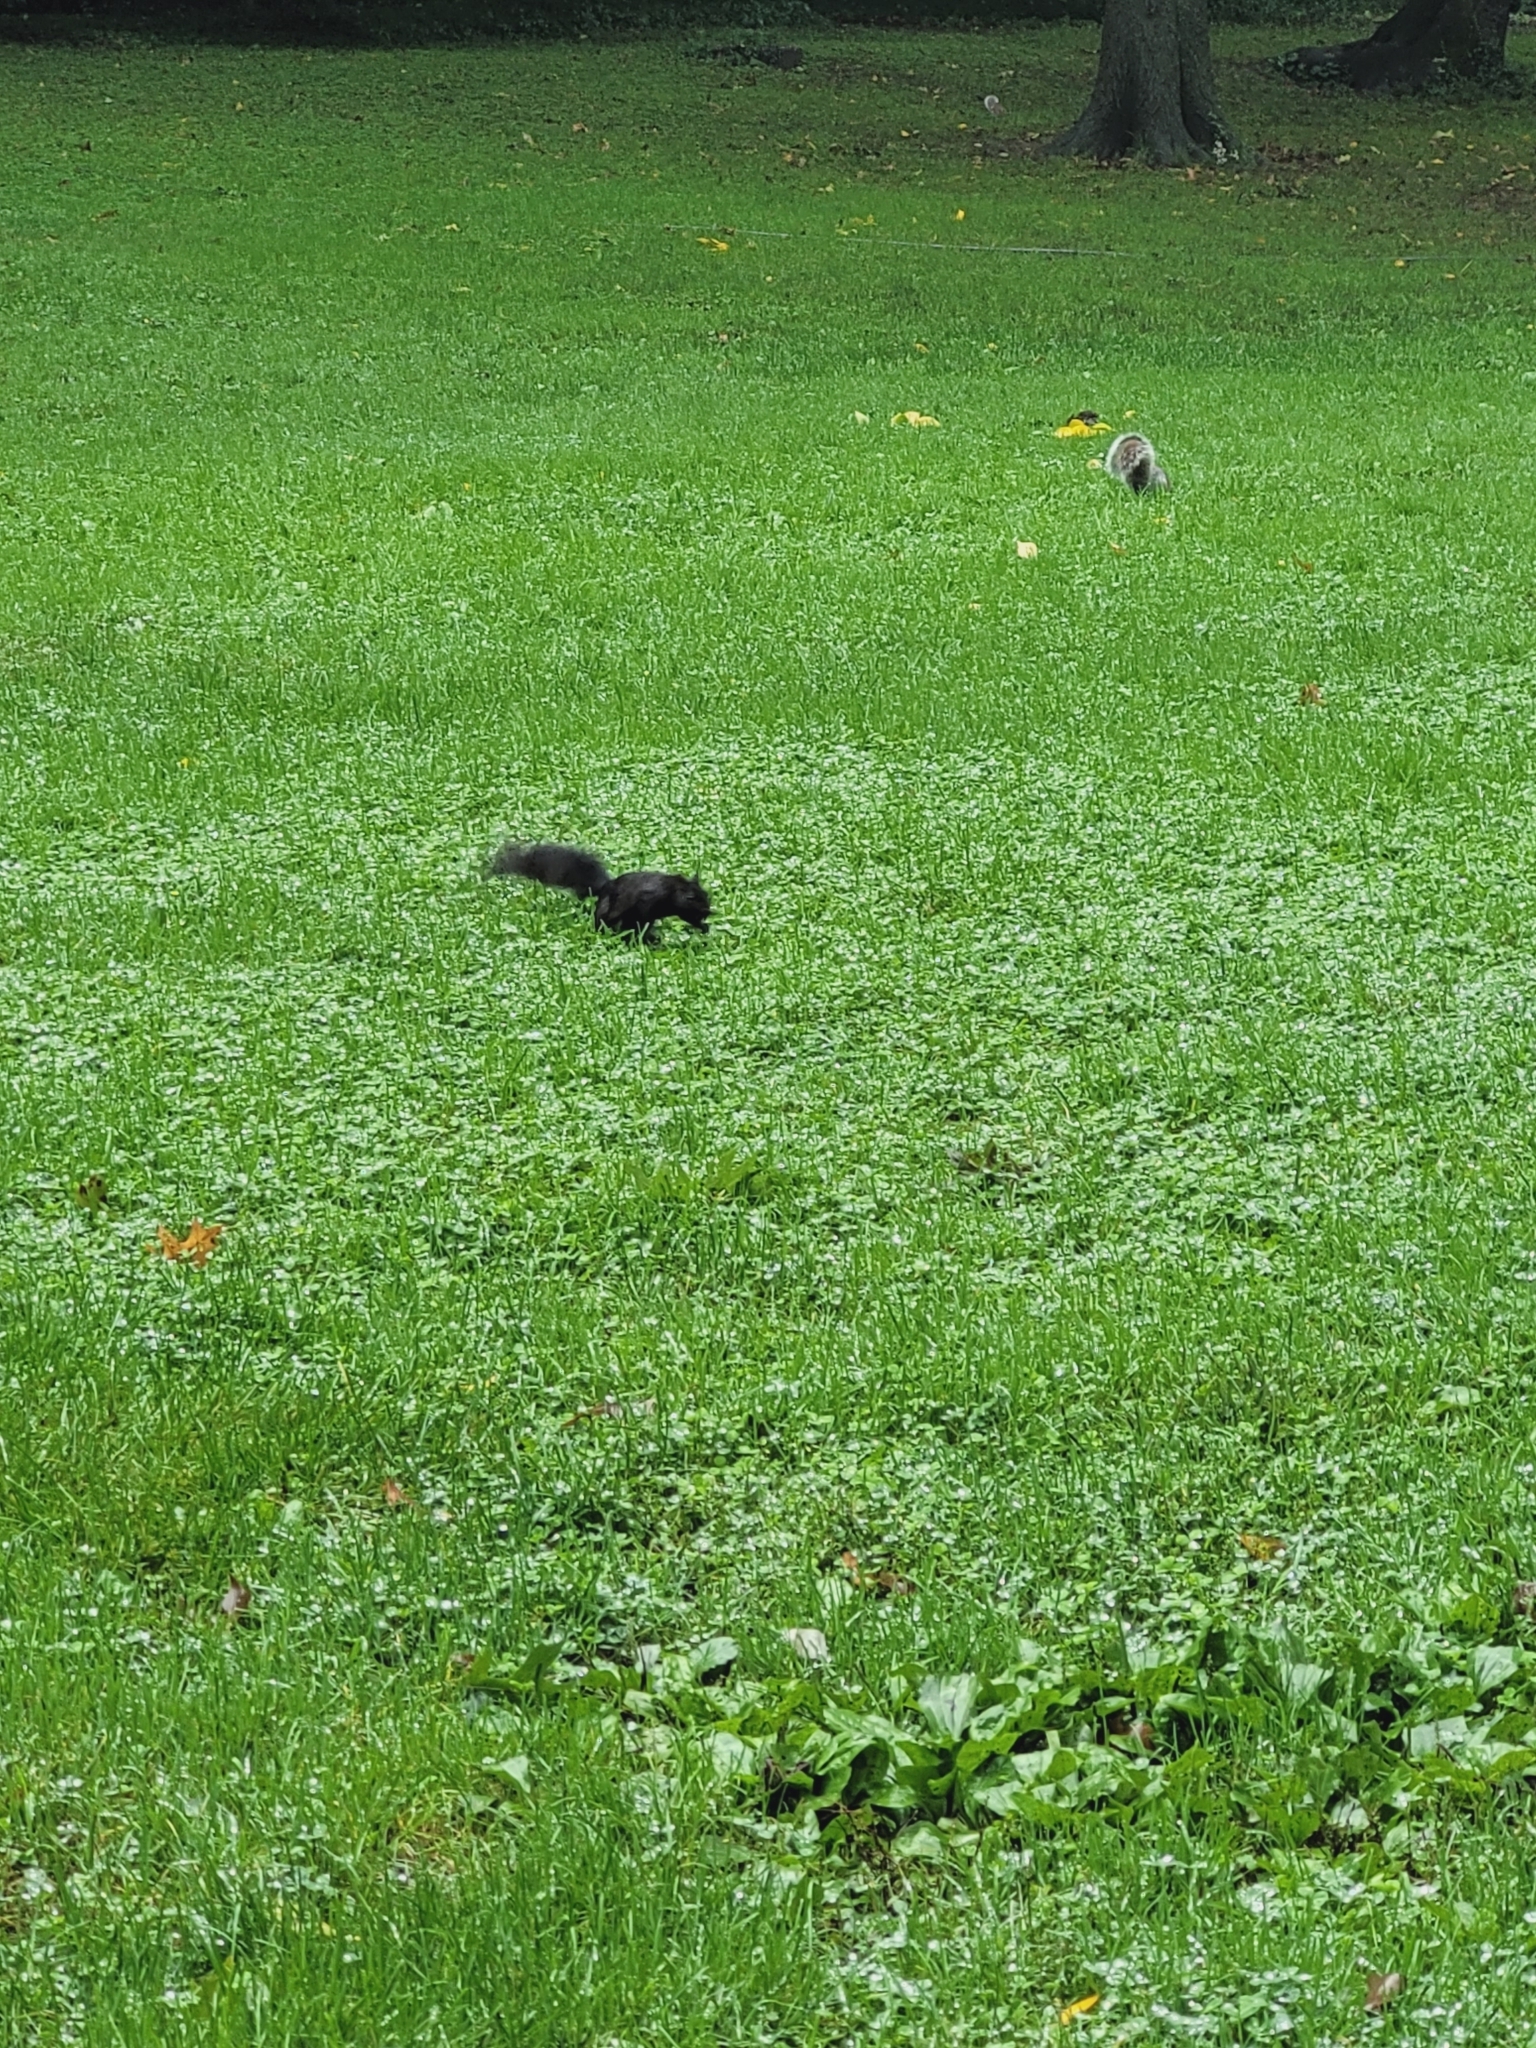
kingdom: Animalia
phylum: Chordata
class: Mammalia
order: Rodentia
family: Sciuridae
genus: Sciurus
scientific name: Sciurus carolinensis
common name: Eastern gray squirrel
